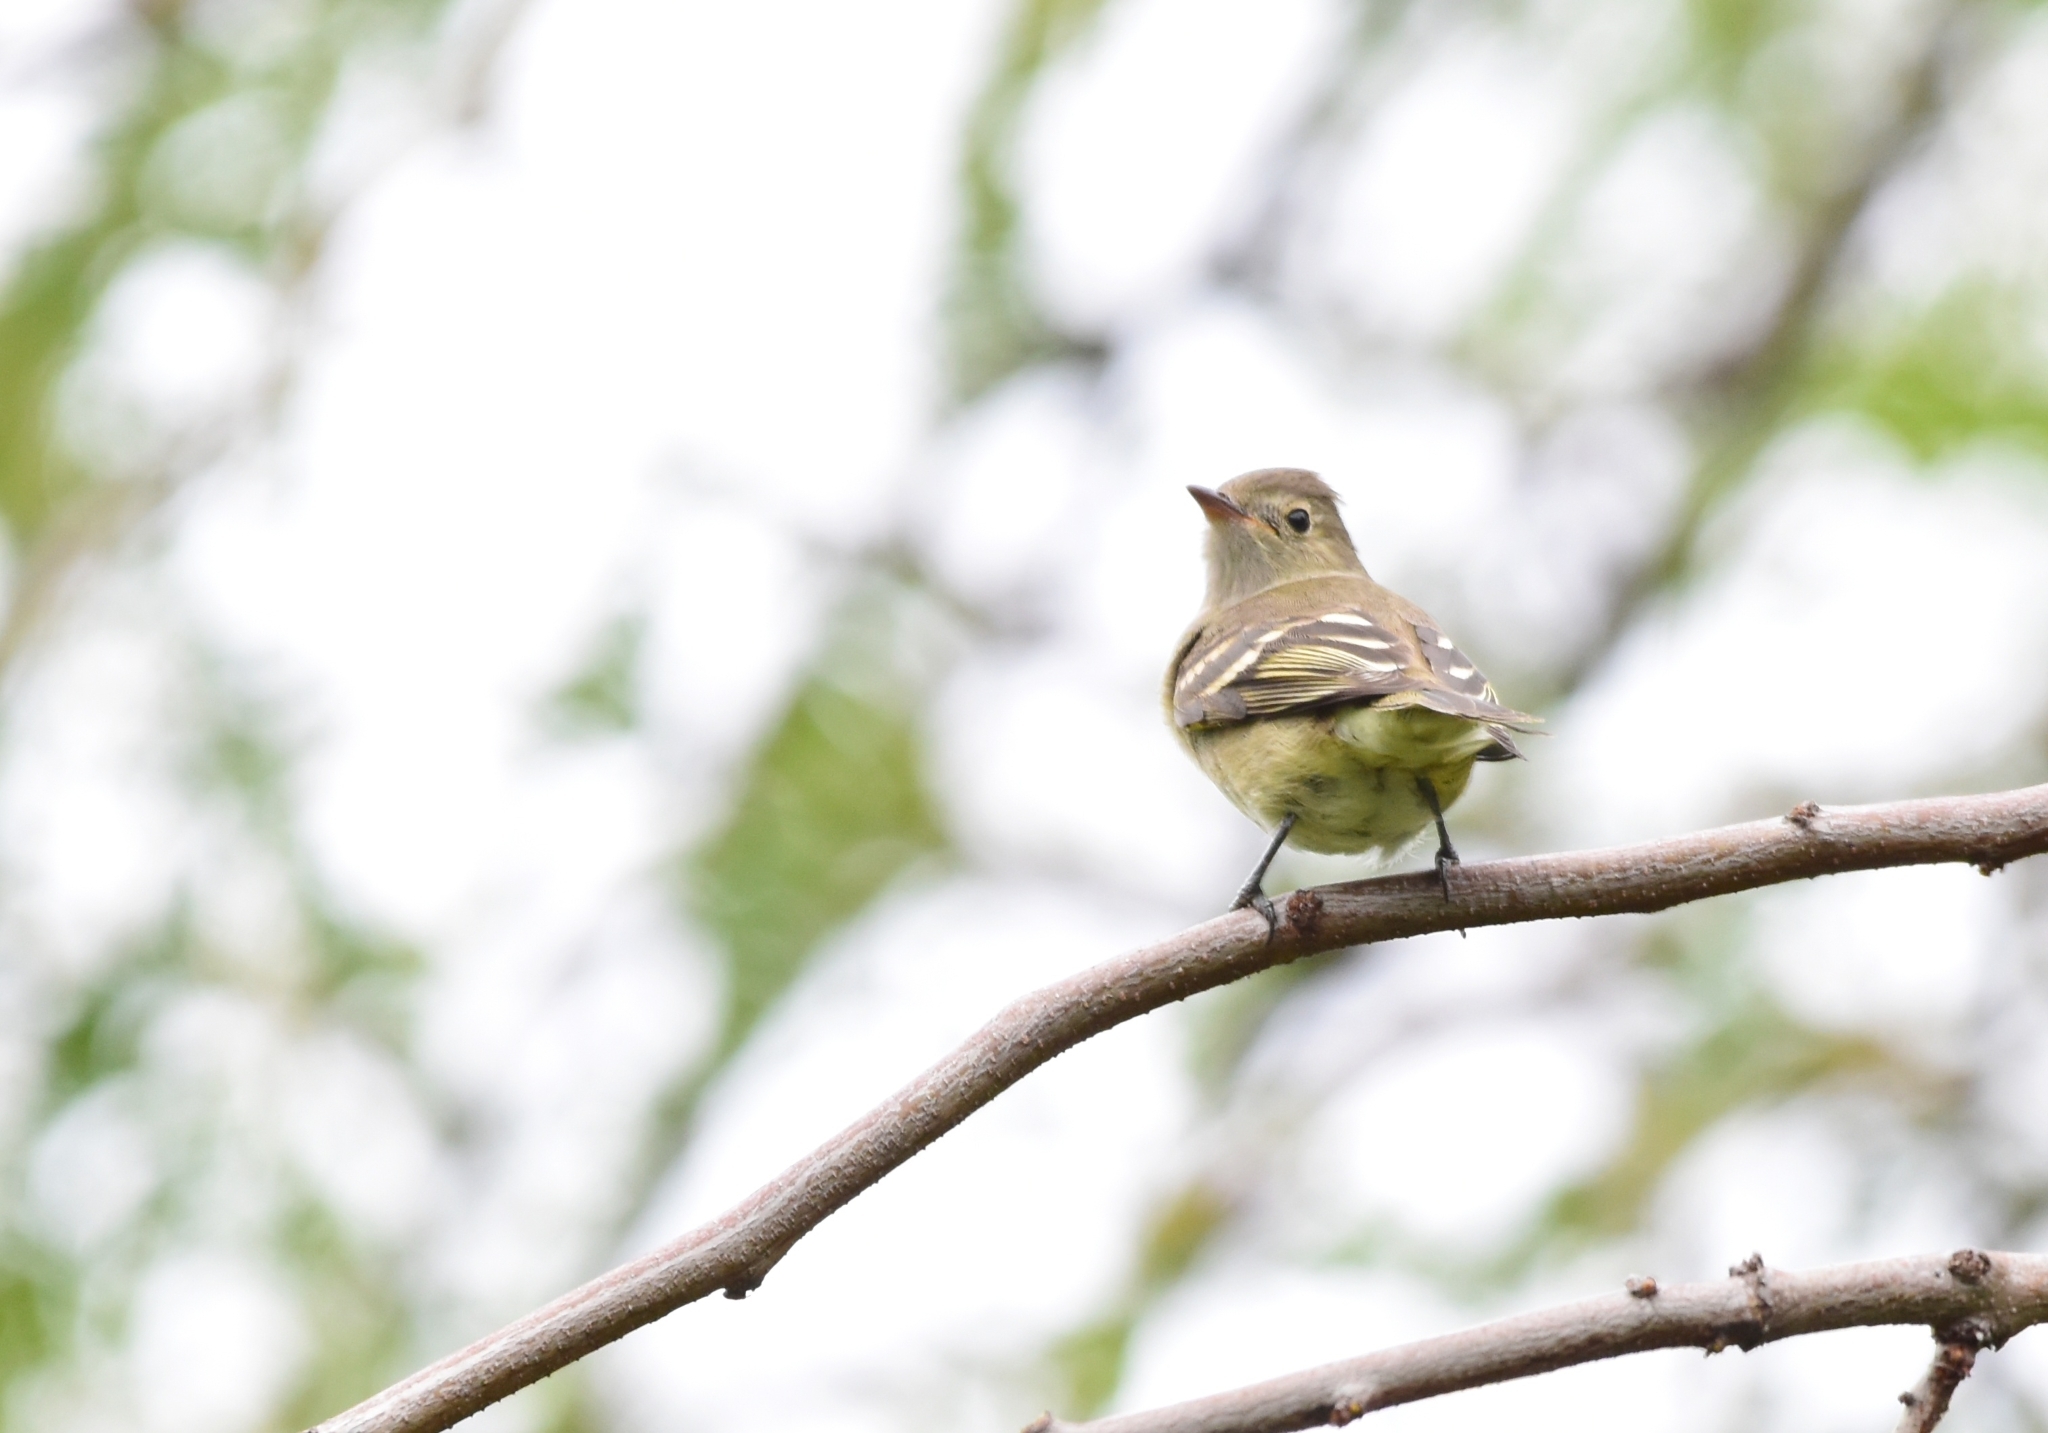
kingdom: Animalia
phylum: Chordata
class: Aves
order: Passeriformes
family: Tyrannidae
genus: Elaenia
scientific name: Elaenia albiceps
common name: White-crested elaenia
